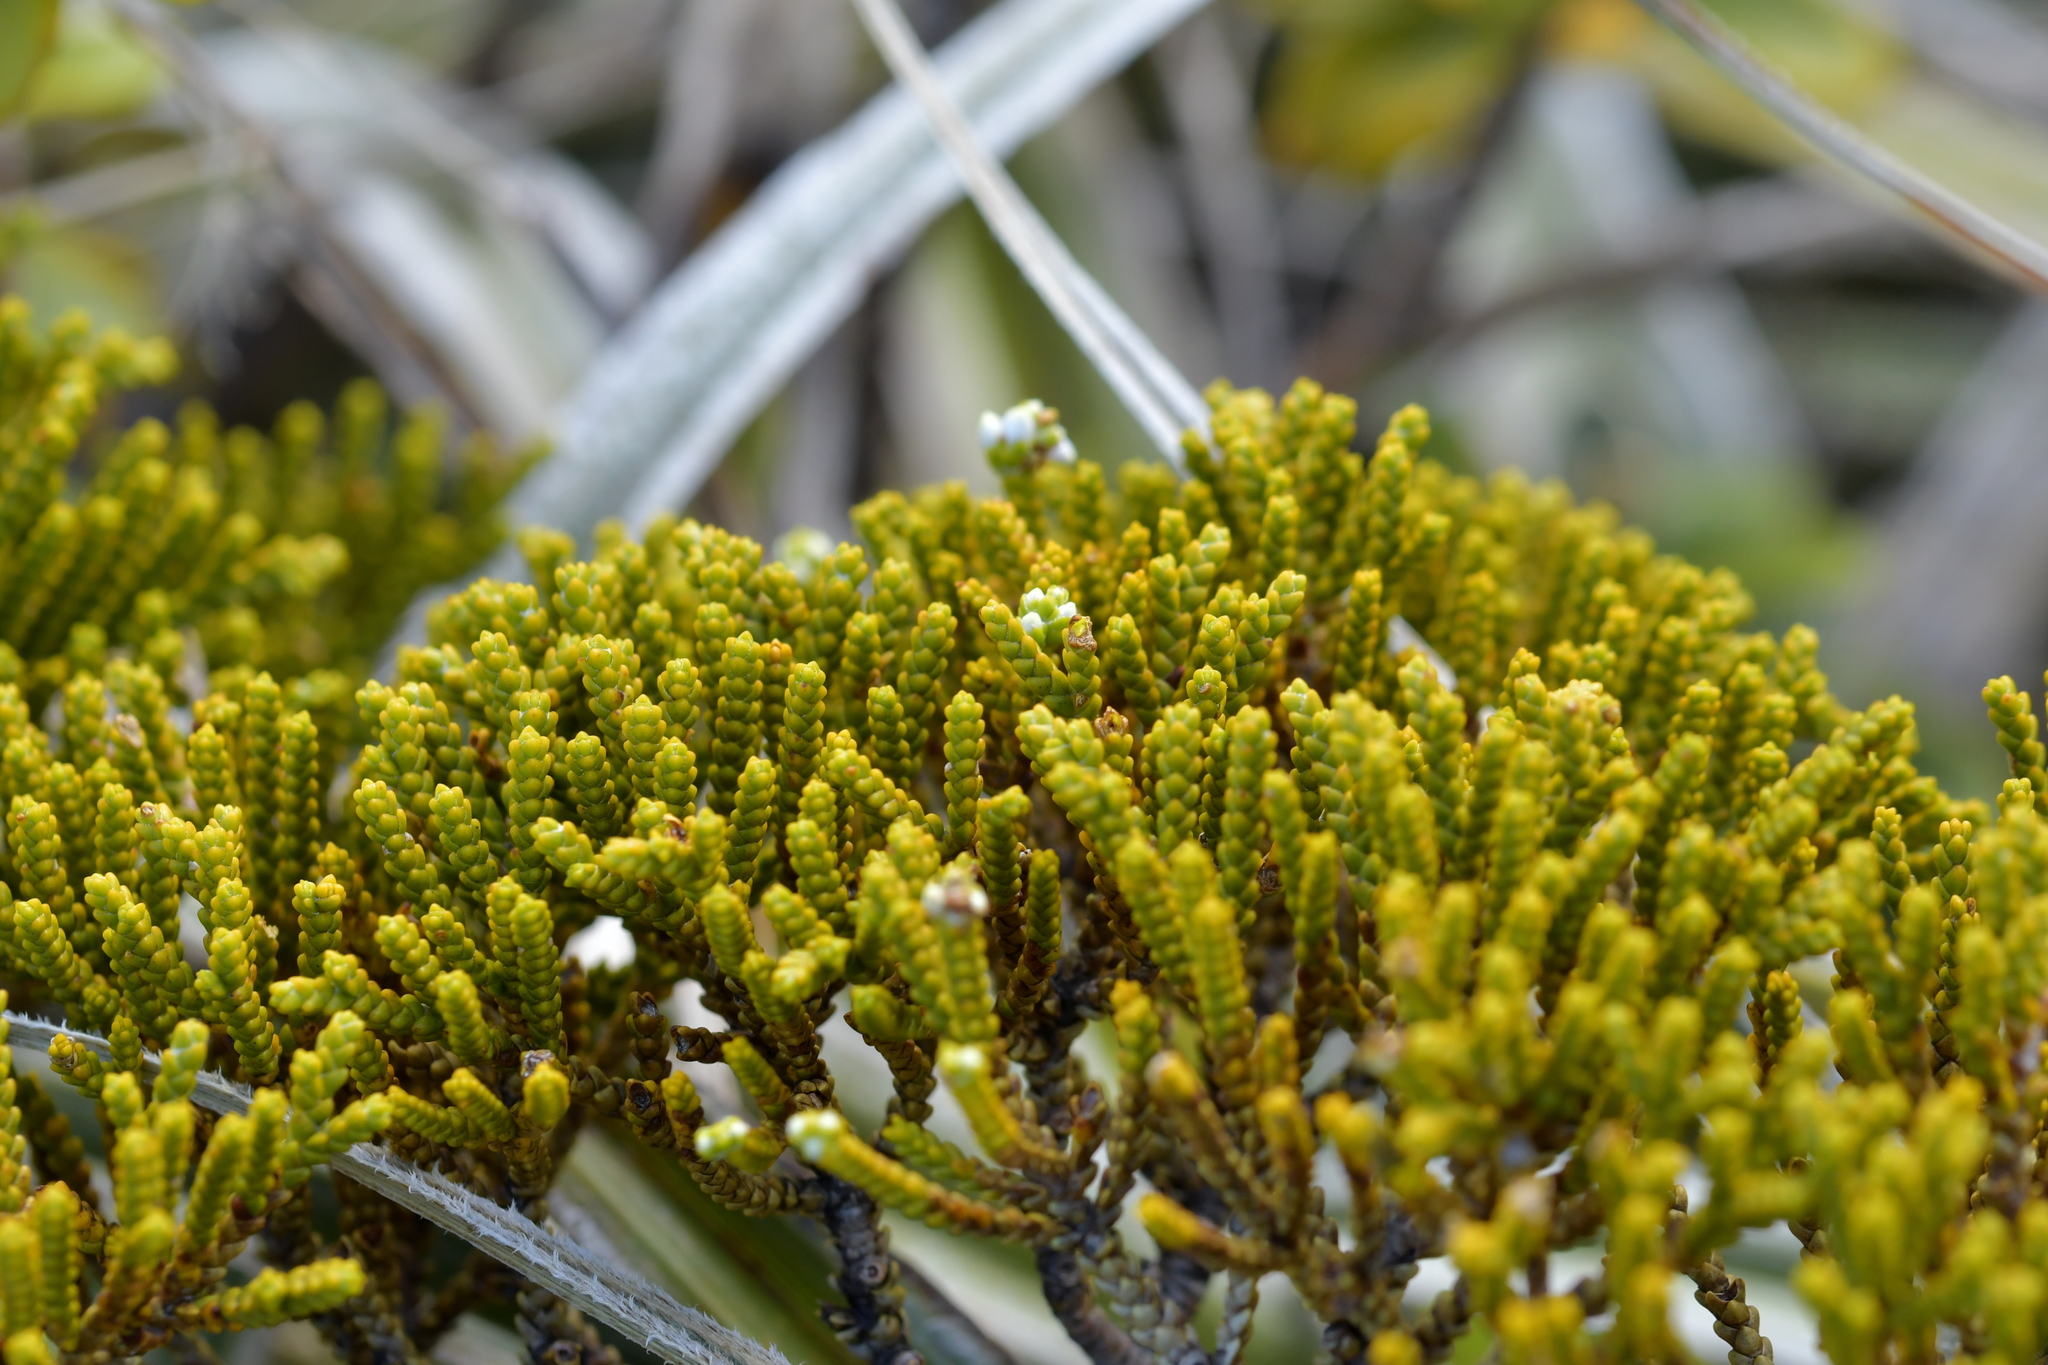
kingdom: Plantae
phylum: Tracheophyta
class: Magnoliopsida
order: Lamiales
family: Plantaginaceae
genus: Veronica
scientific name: Veronica tetragona
